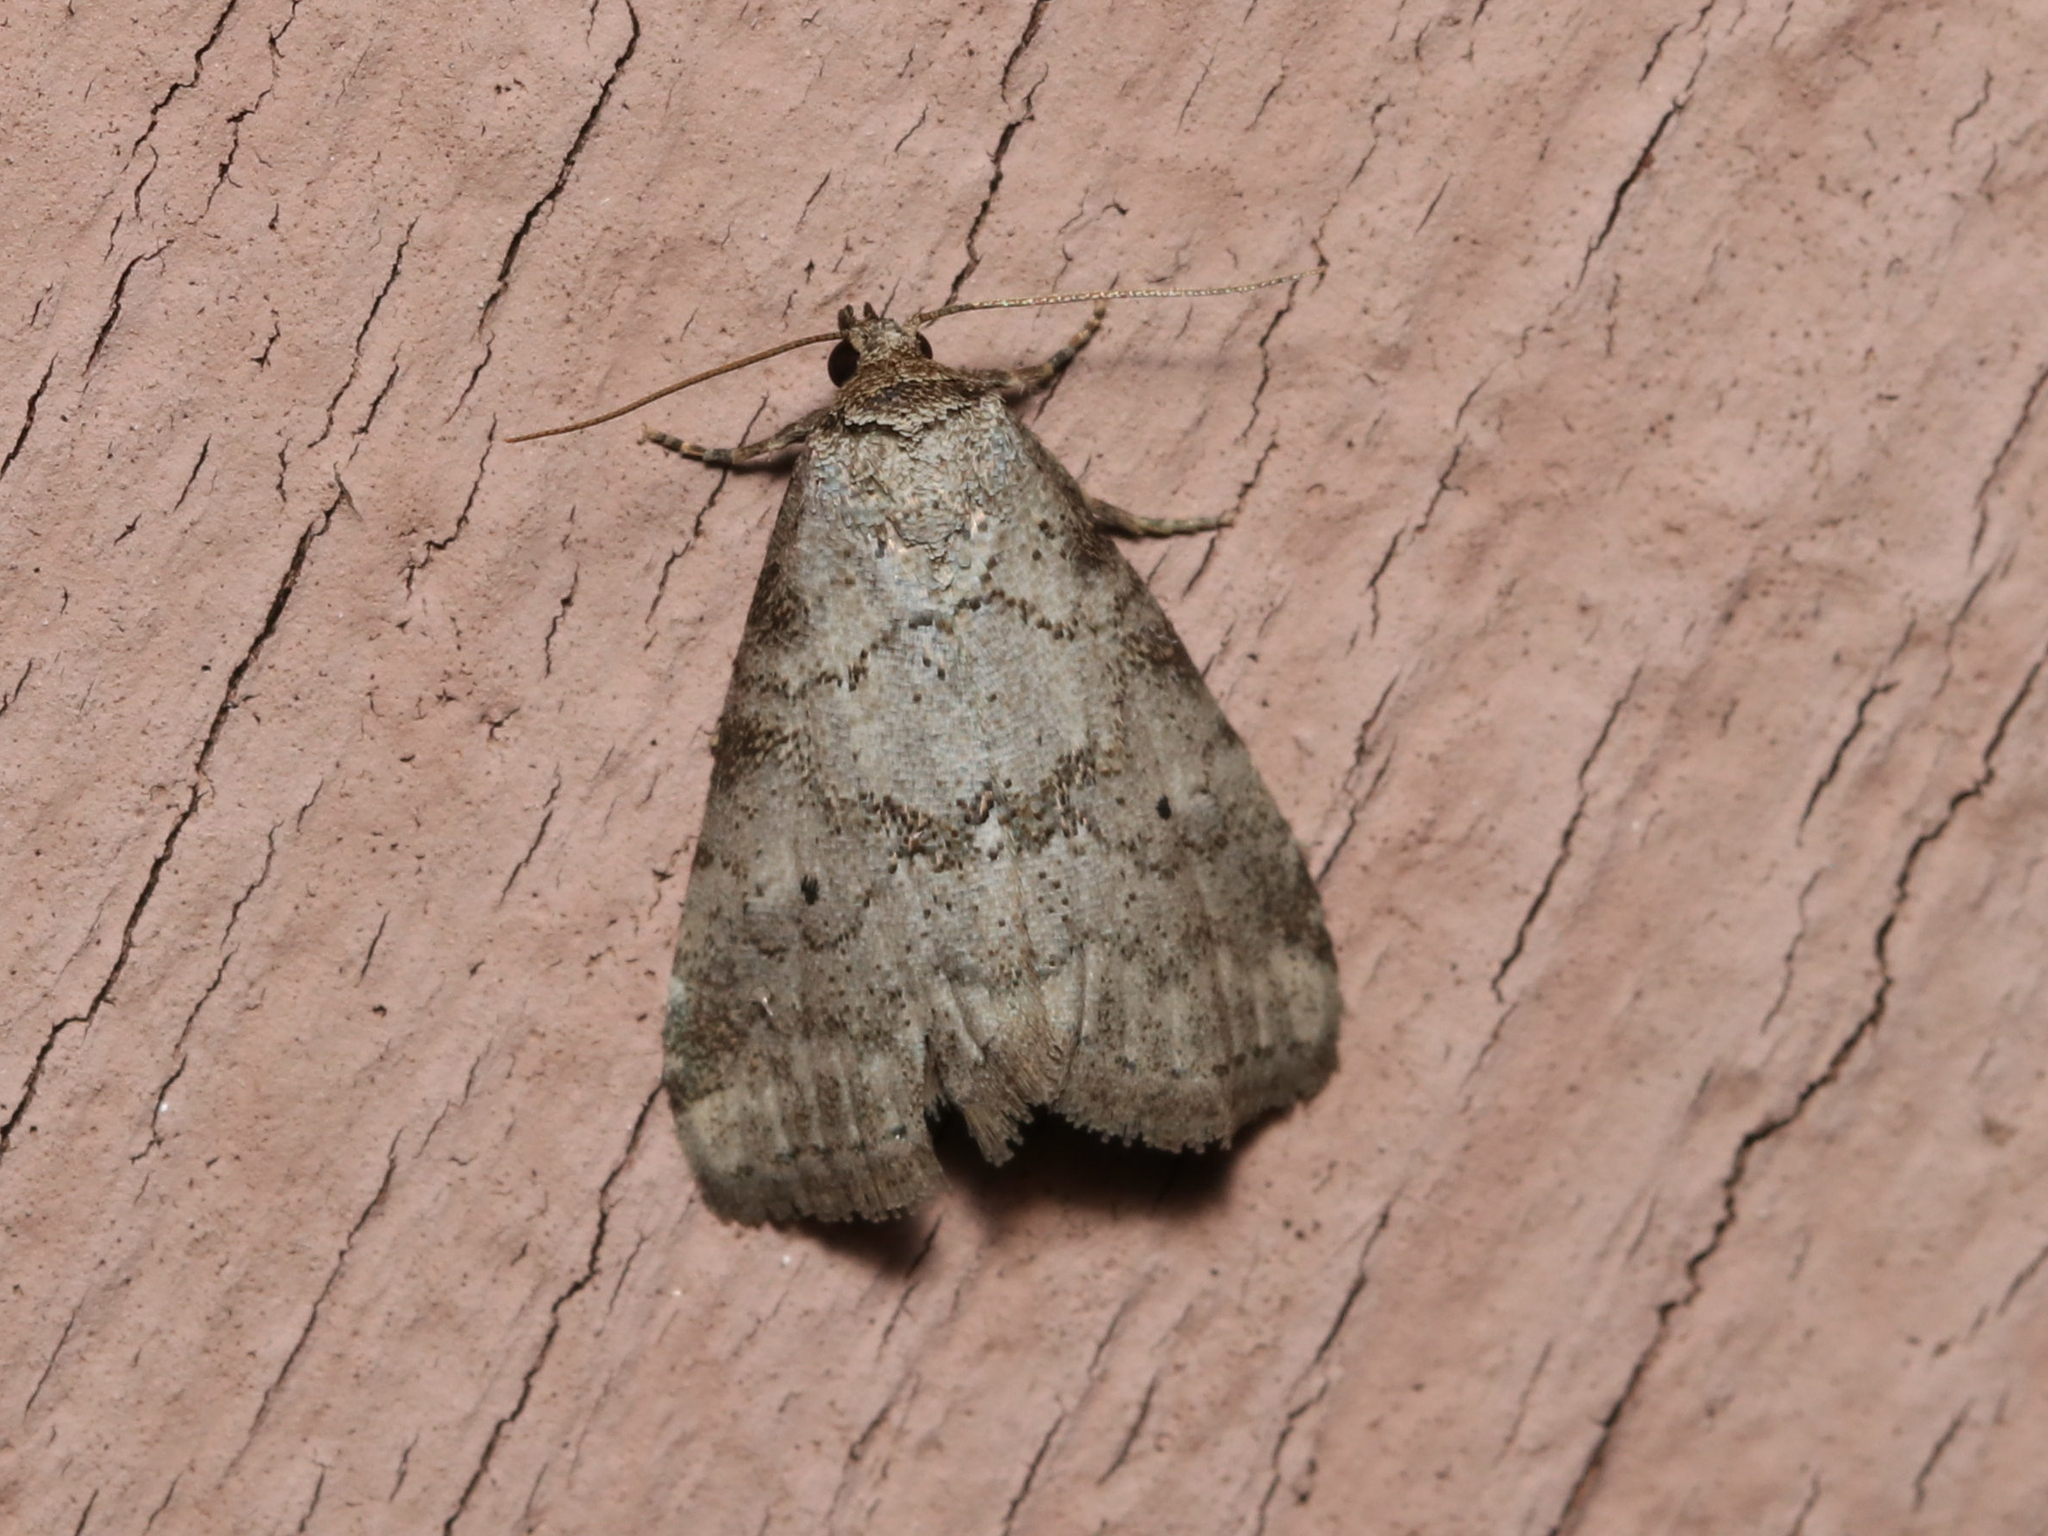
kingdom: Animalia
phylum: Arthropoda
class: Insecta
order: Lepidoptera
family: Erebidae
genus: Hyperstrotia
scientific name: Hyperstrotia pervertens
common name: Dotted graylet
